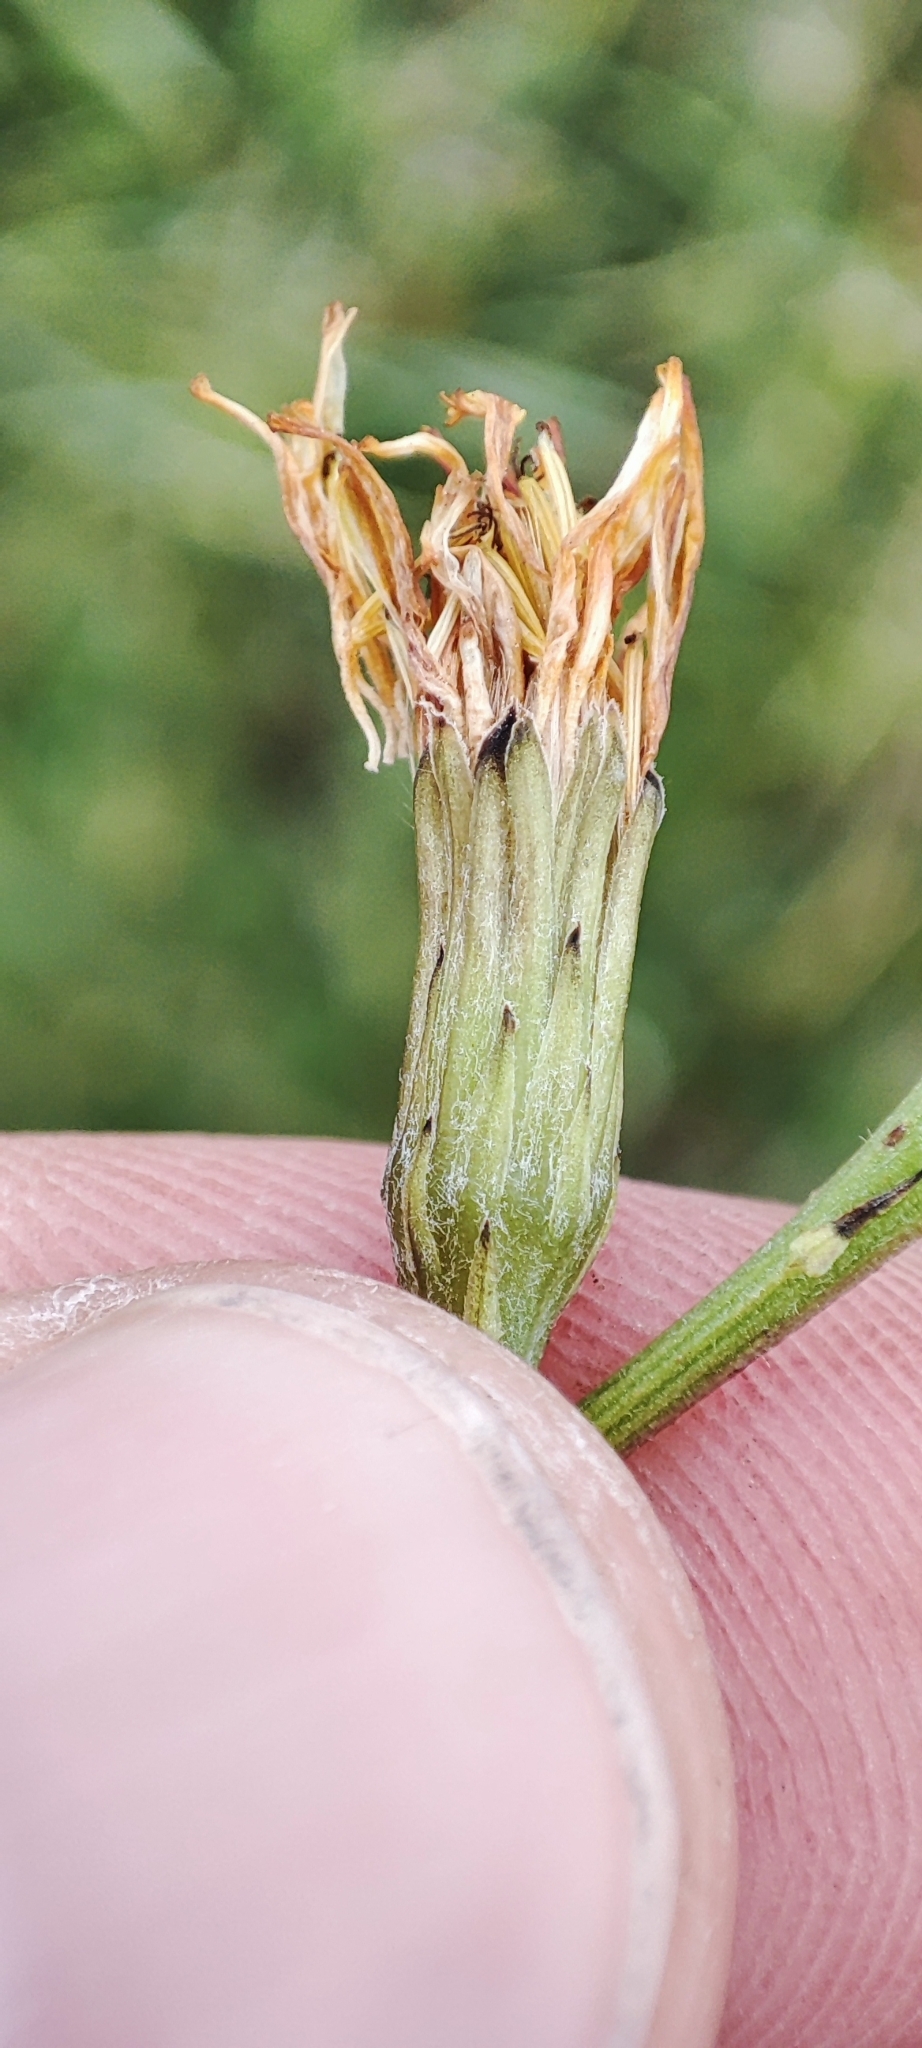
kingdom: Plantae
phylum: Tracheophyta
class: Magnoliopsida
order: Asterales
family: Asteraceae
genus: Scorzoneroides
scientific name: Scorzoneroides autumnalis
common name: Autumn hawkbit
